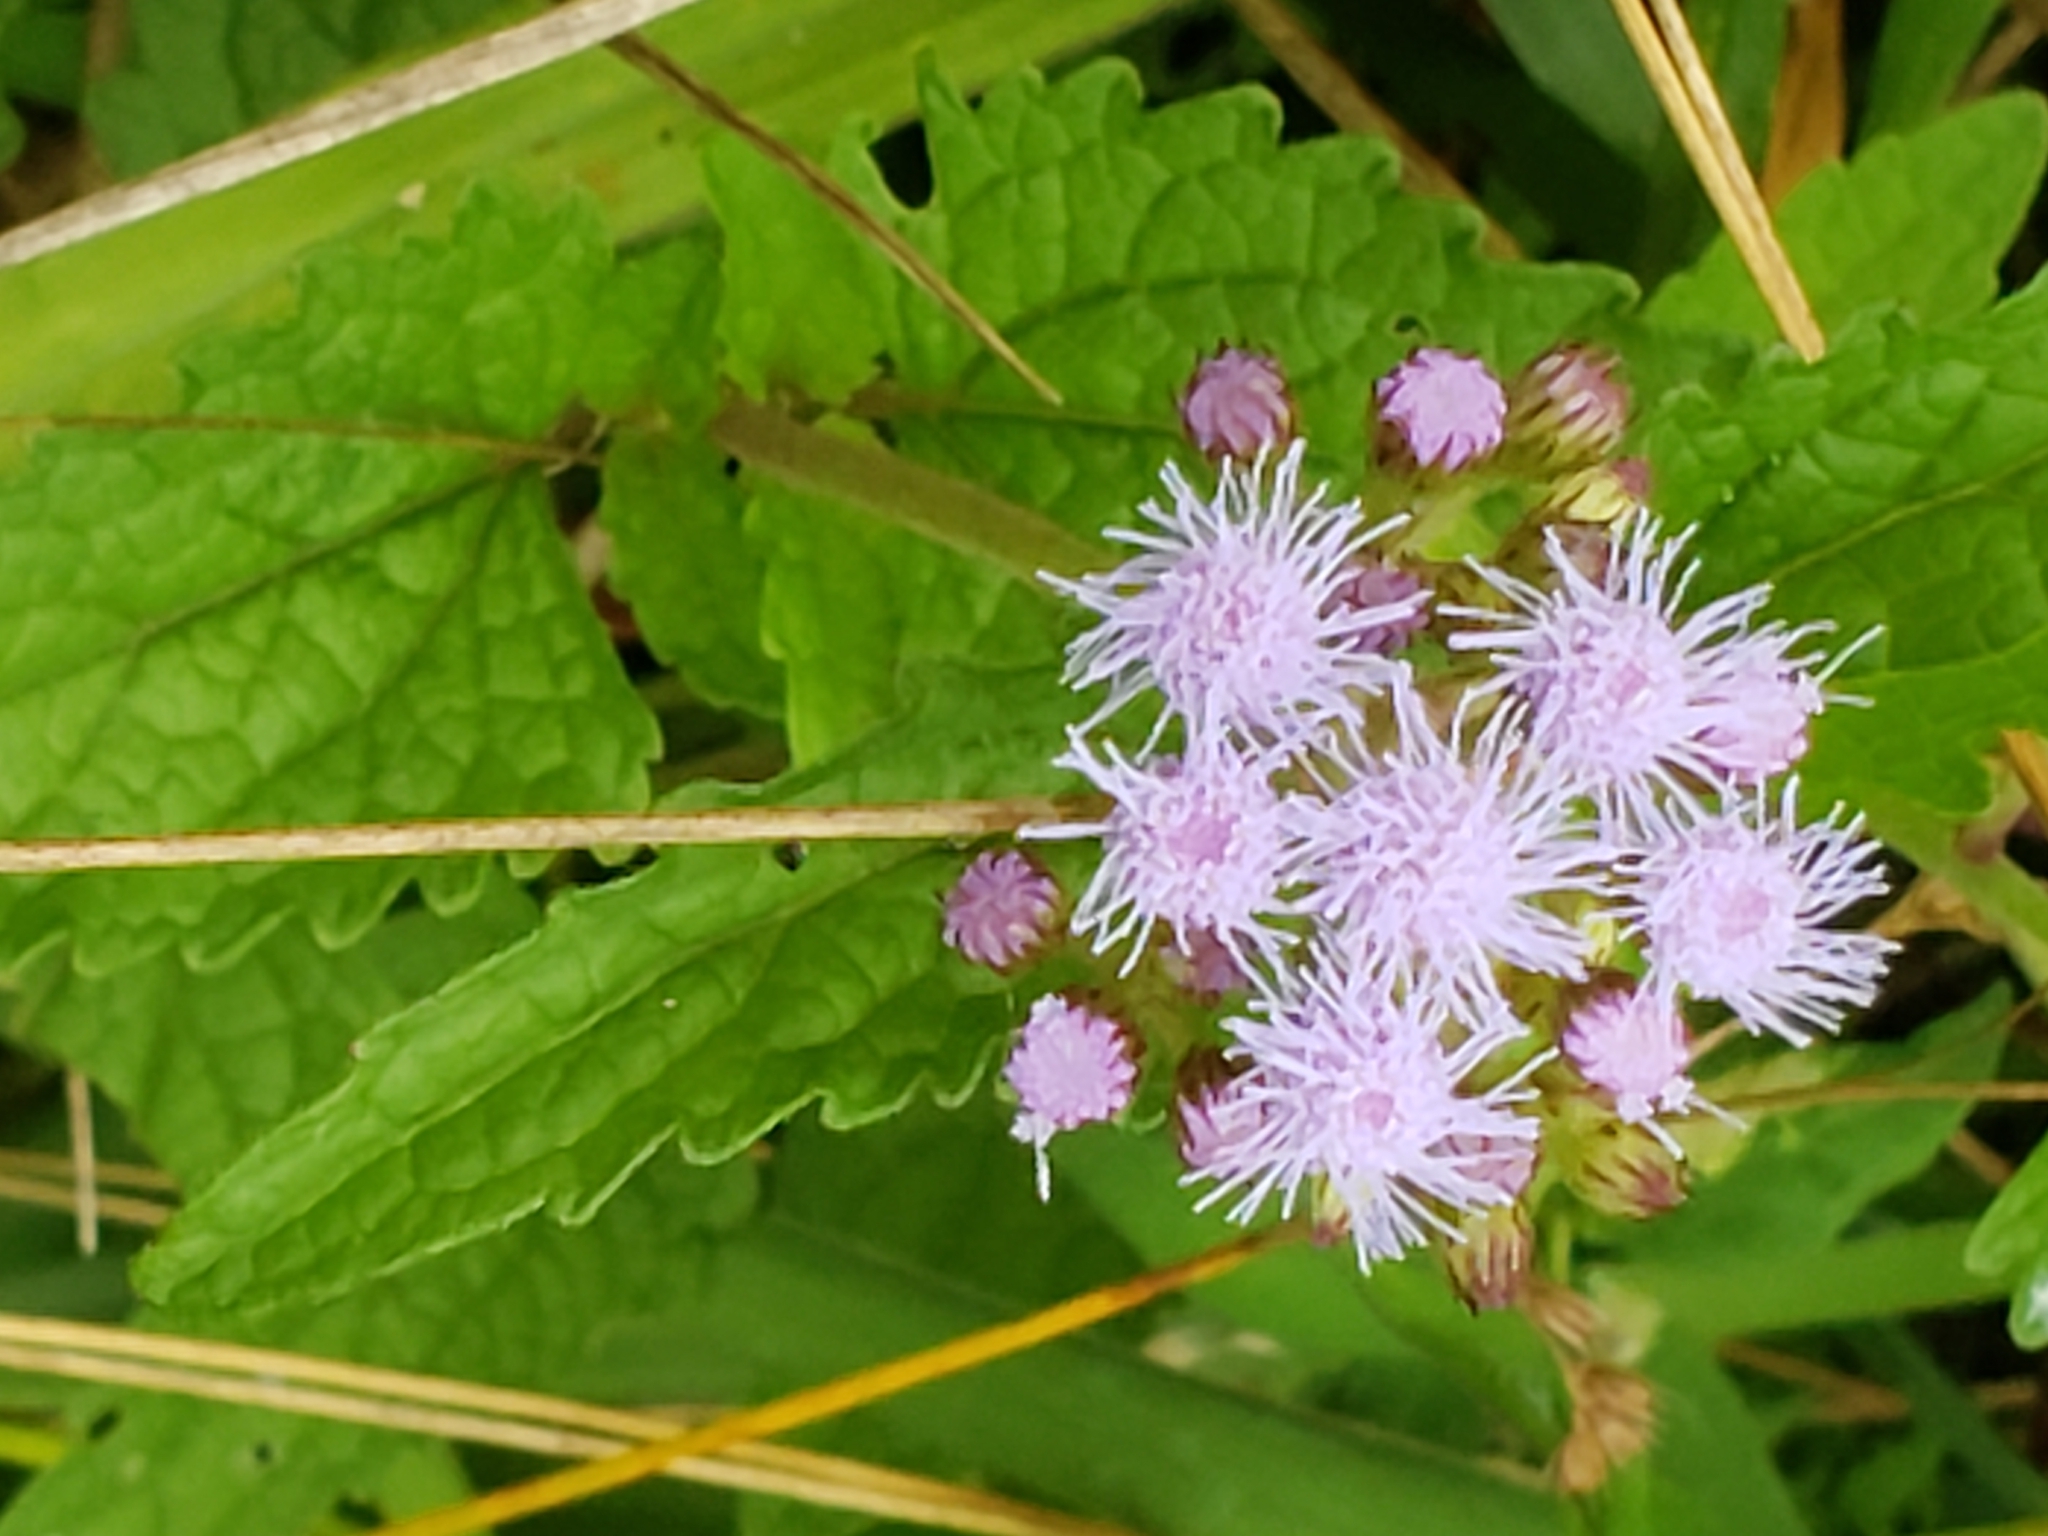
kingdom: Plantae
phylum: Tracheophyta
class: Magnoliopsida
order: Asterales
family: Asteraceae
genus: Conoclinium
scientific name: Conoclinium coelestinum
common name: Blue mistflower
